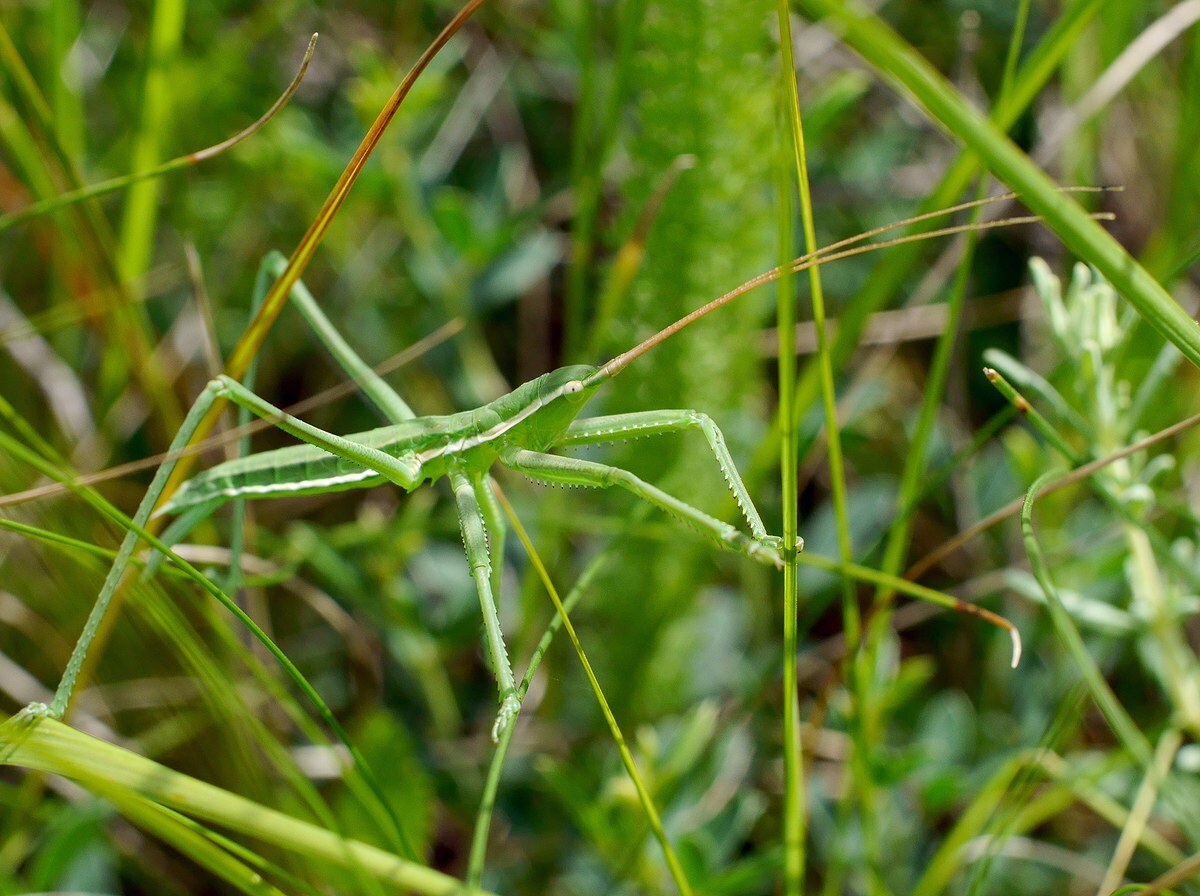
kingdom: Animalia
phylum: Arthropoda
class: Insecta
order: Orthoptera
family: Tettigoniidae
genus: Saga
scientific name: Saga pedo
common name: Common predatory bush-cricket
